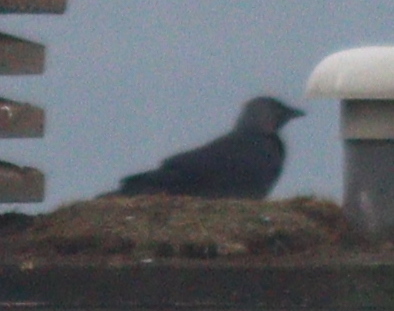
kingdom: Animalia
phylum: Chordata
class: Aves
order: Passeriformes
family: Corvidae
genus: Coloeus
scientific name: Coloeus monedula
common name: Western jackdaw
